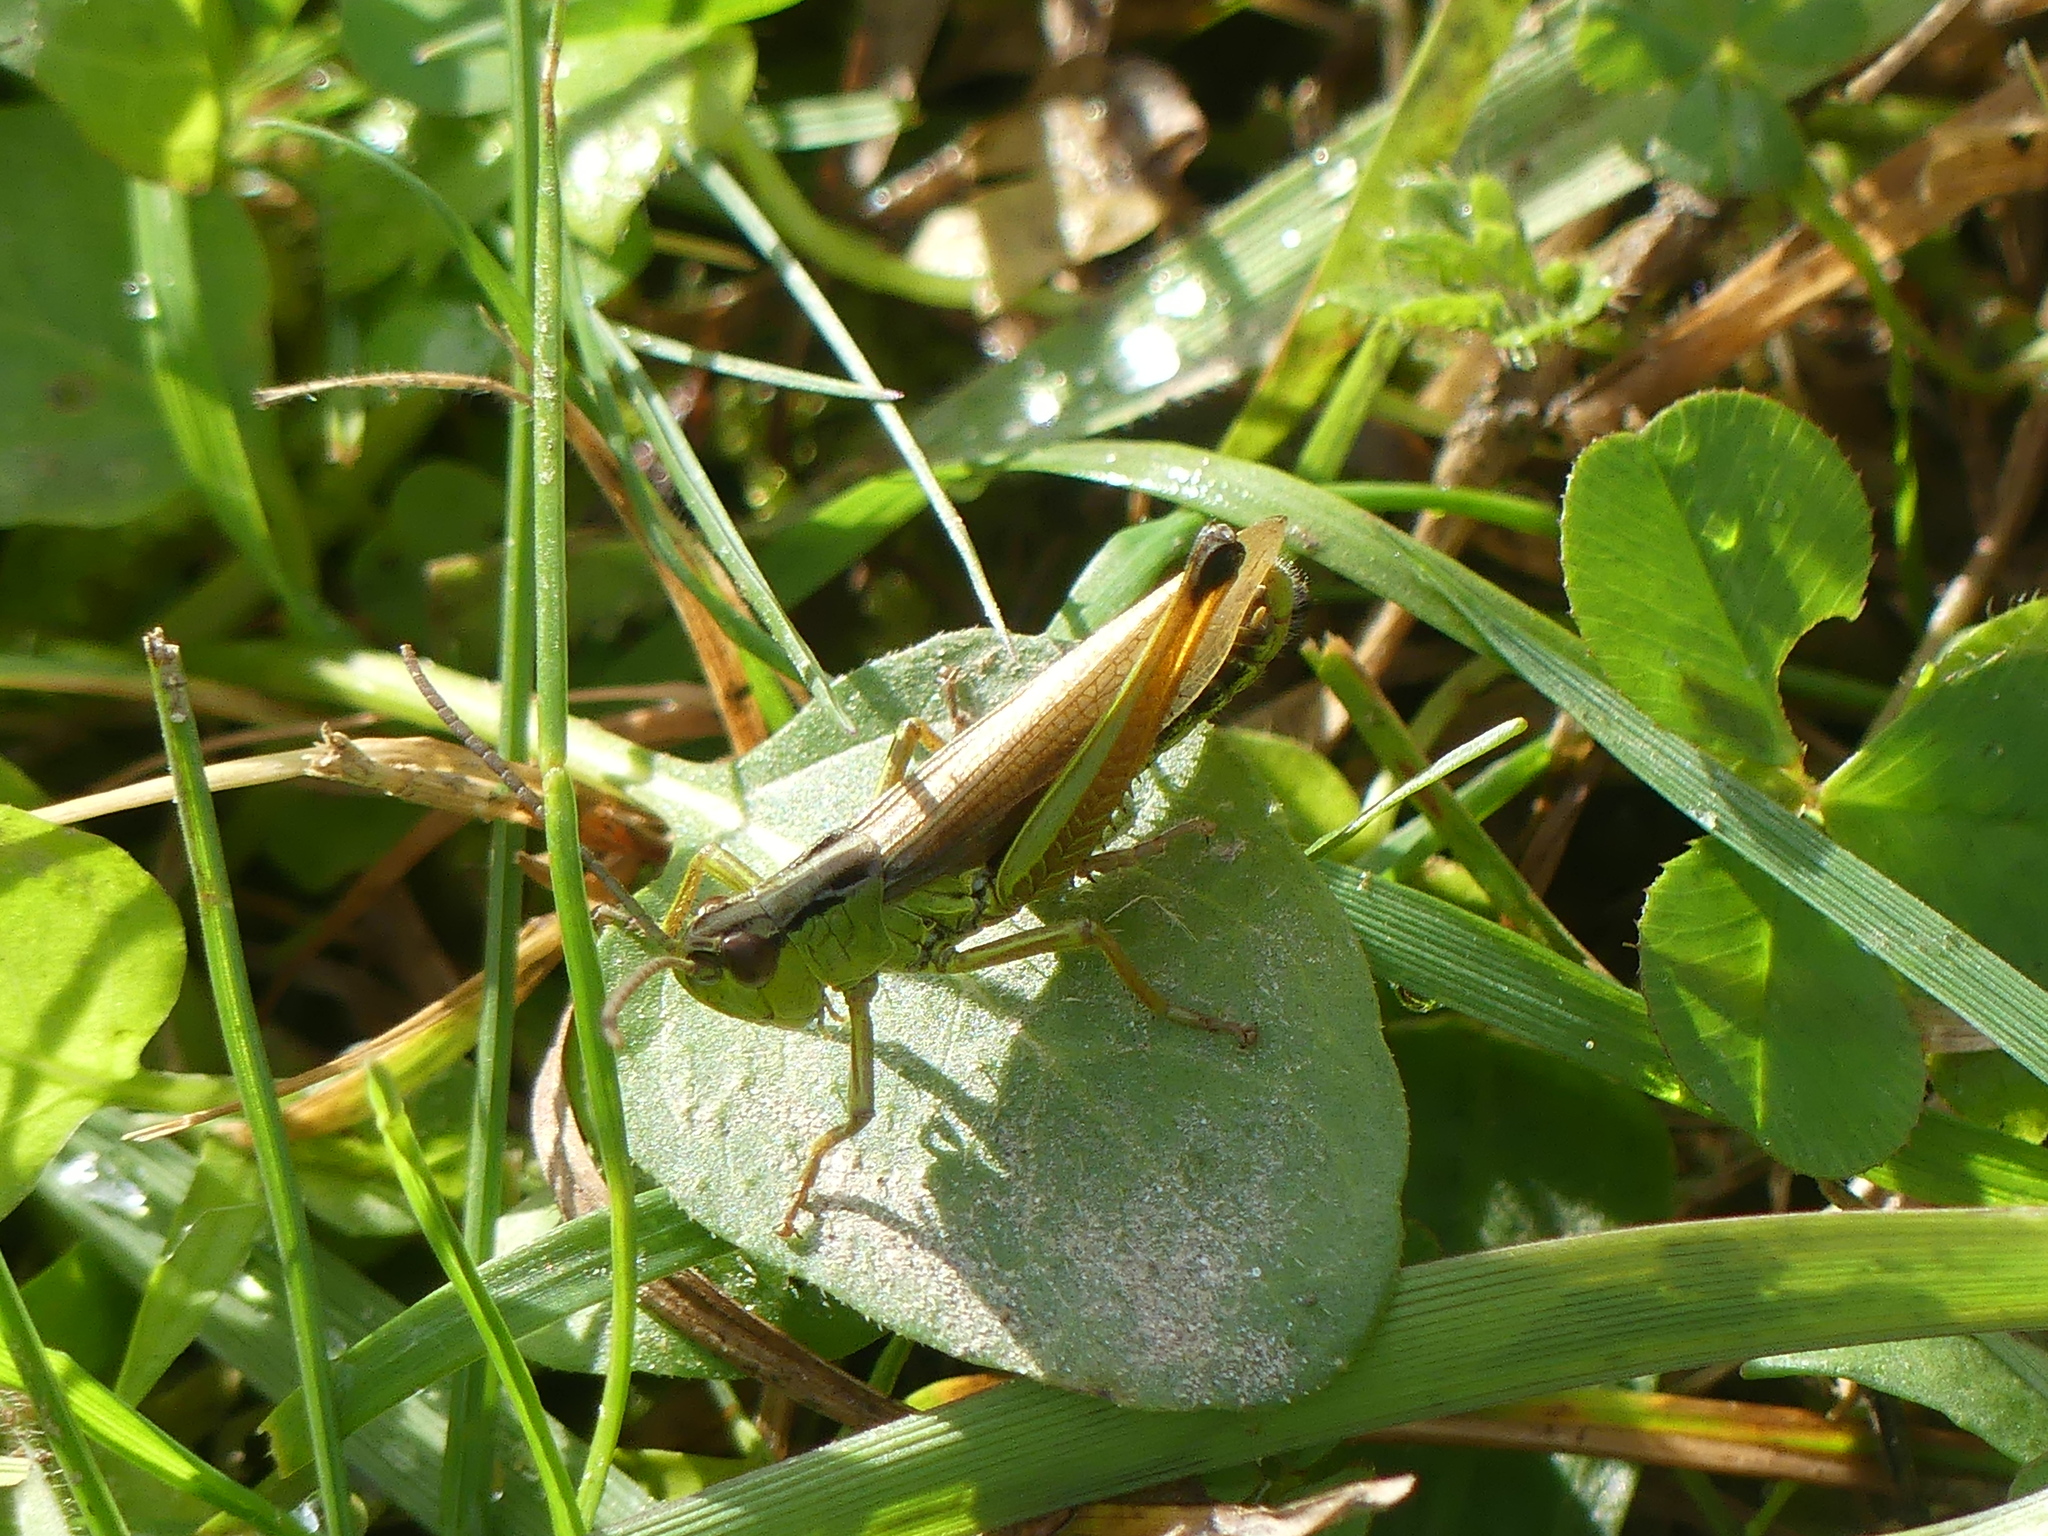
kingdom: Animalia
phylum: Arthropoda
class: Insecta
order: Orthoptera
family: Acrididae
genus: Pseudochorthippus
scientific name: Pseudochorthippus montanus
